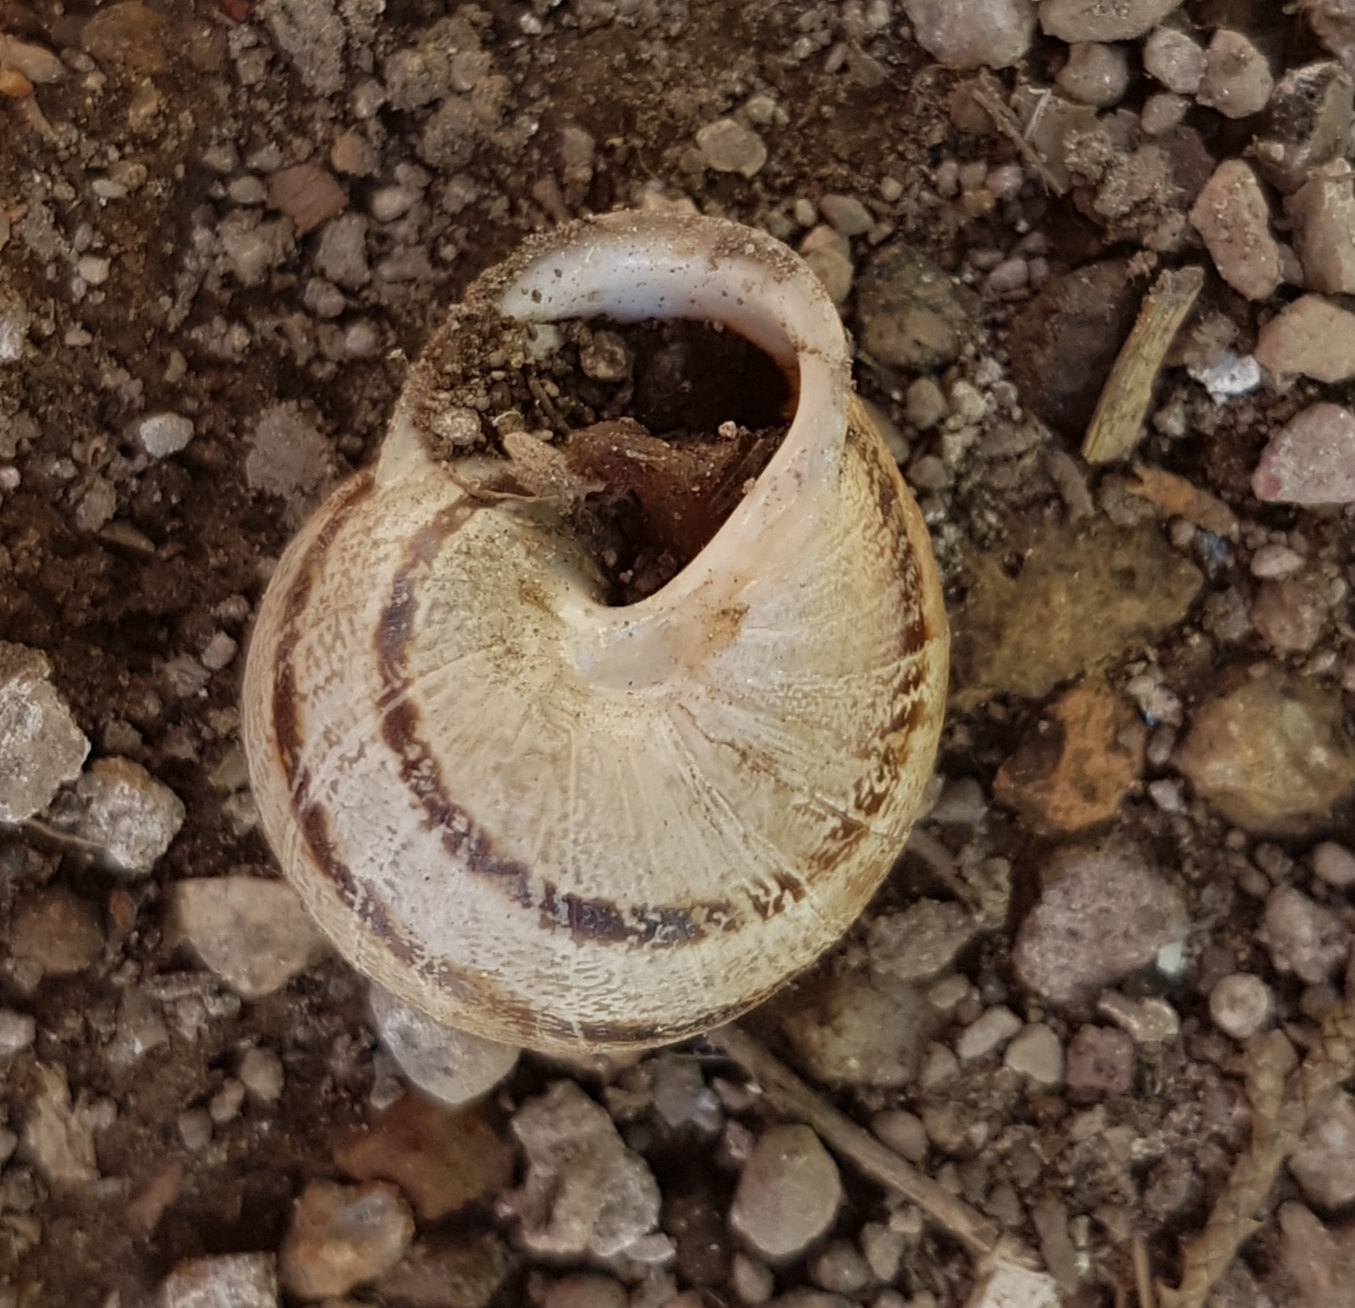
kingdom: Animalia
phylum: Mollusca
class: Gastropoda
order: Stylommatophora
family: Helicidae
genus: Eobania
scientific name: Eobania vermiculata
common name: Chocolateband snail
